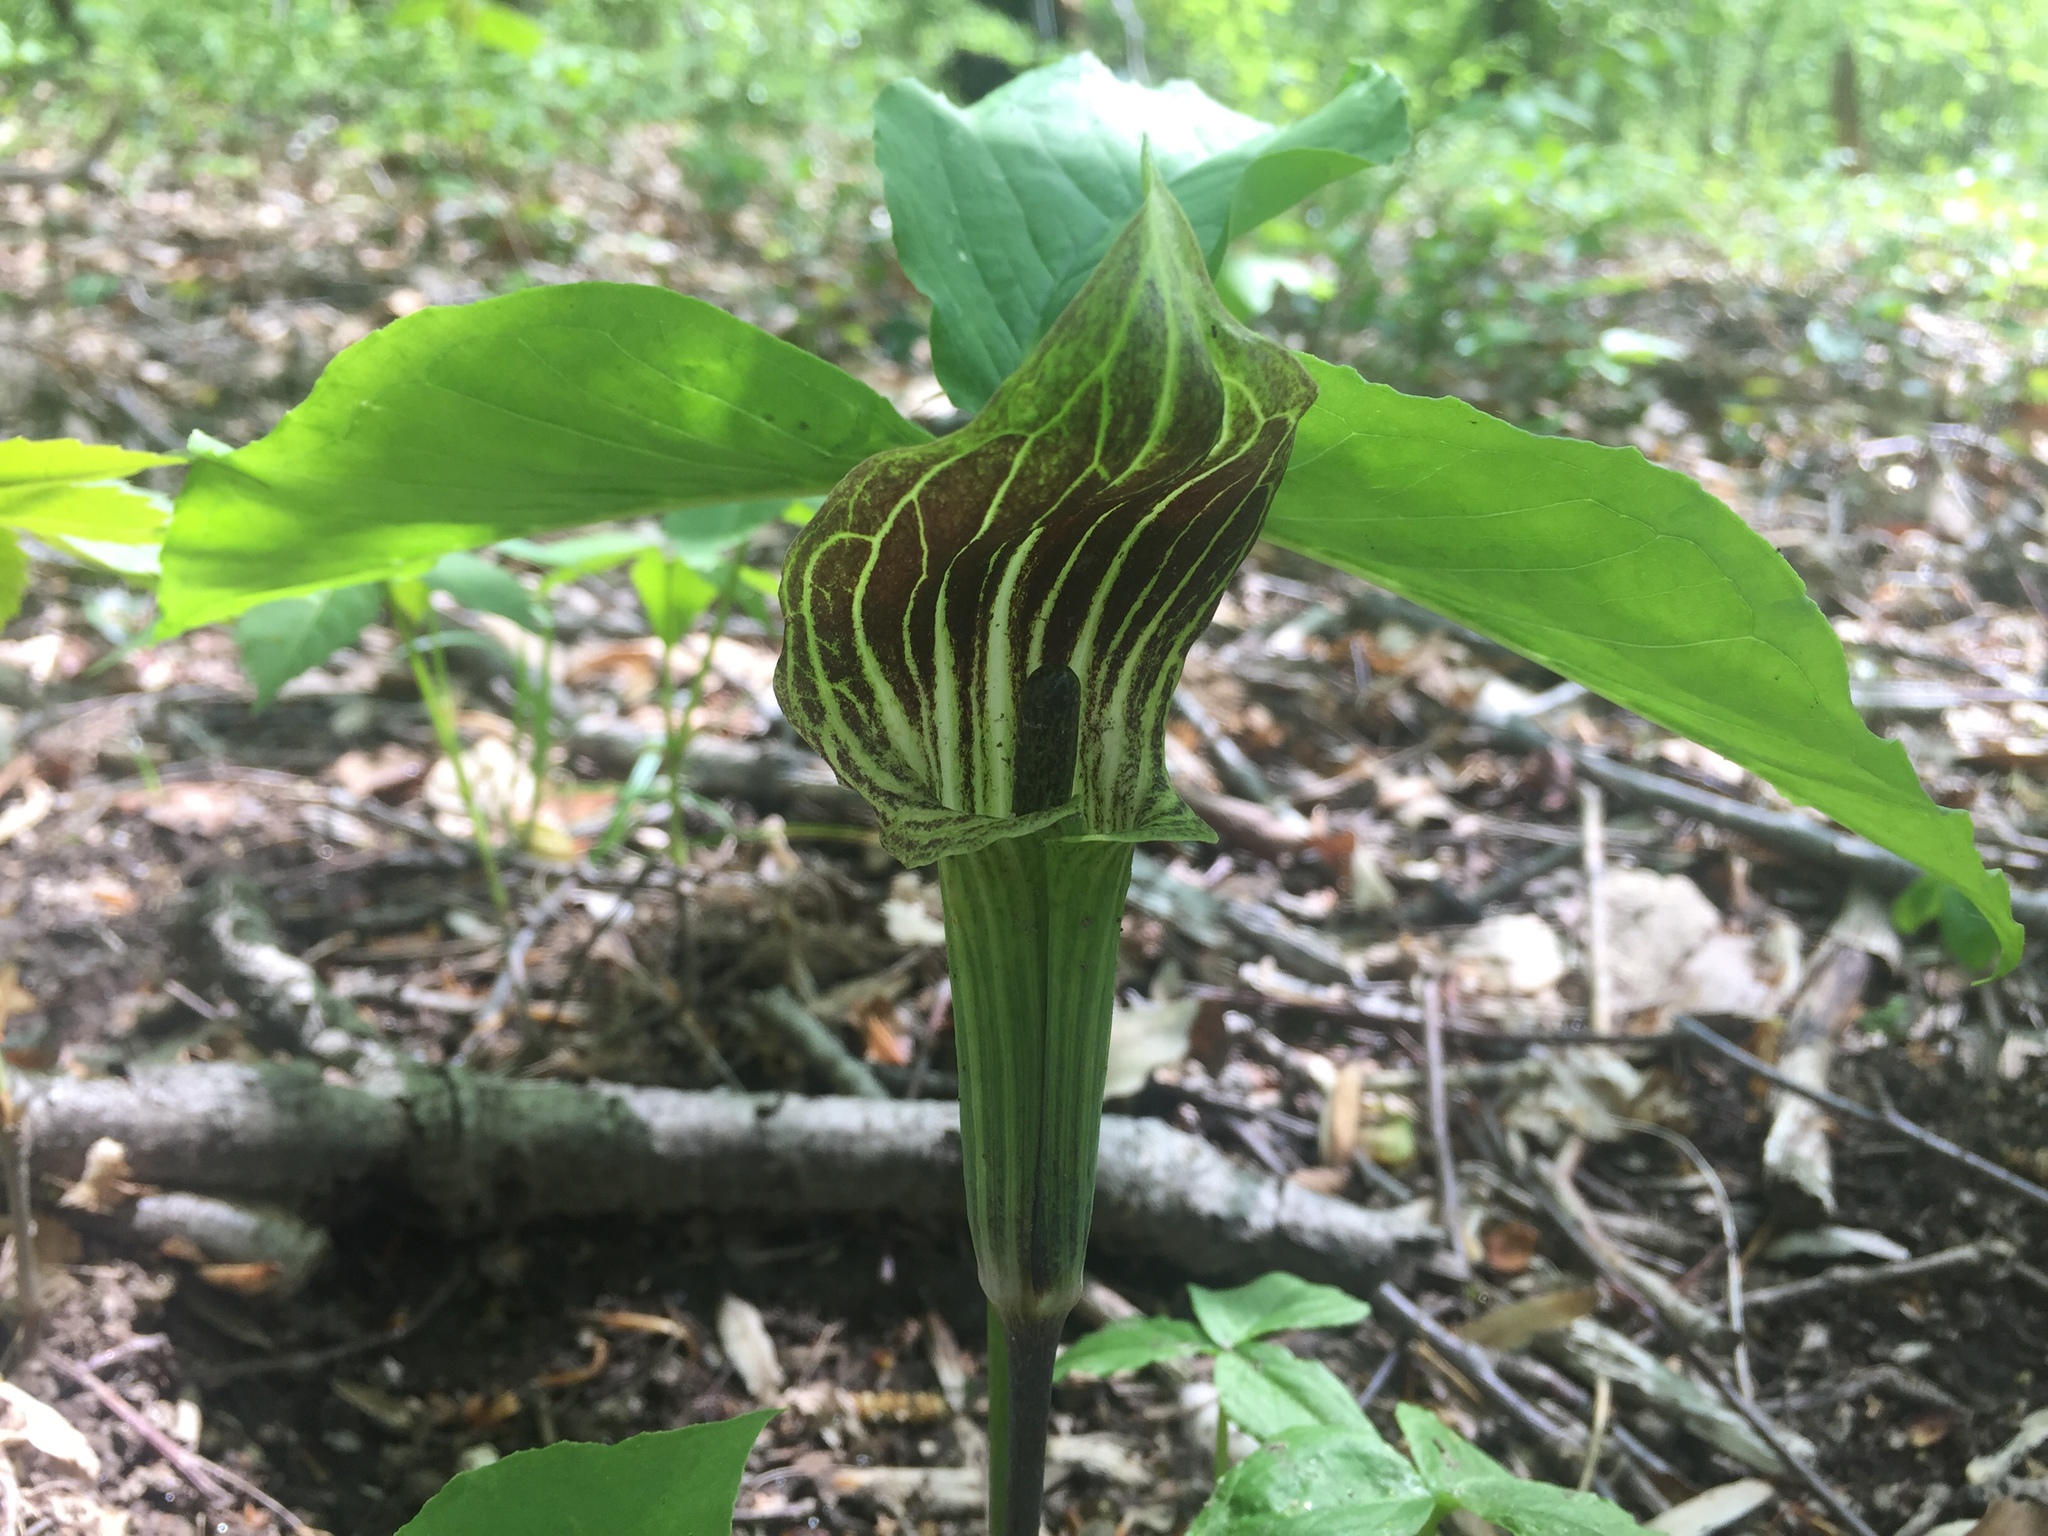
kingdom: Plantae
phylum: Tracheophyta
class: Liliopsida
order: Alismatales
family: Araceae
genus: Arisaema
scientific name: Arisaema triphyllum
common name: Jack-in-the-pulpit
